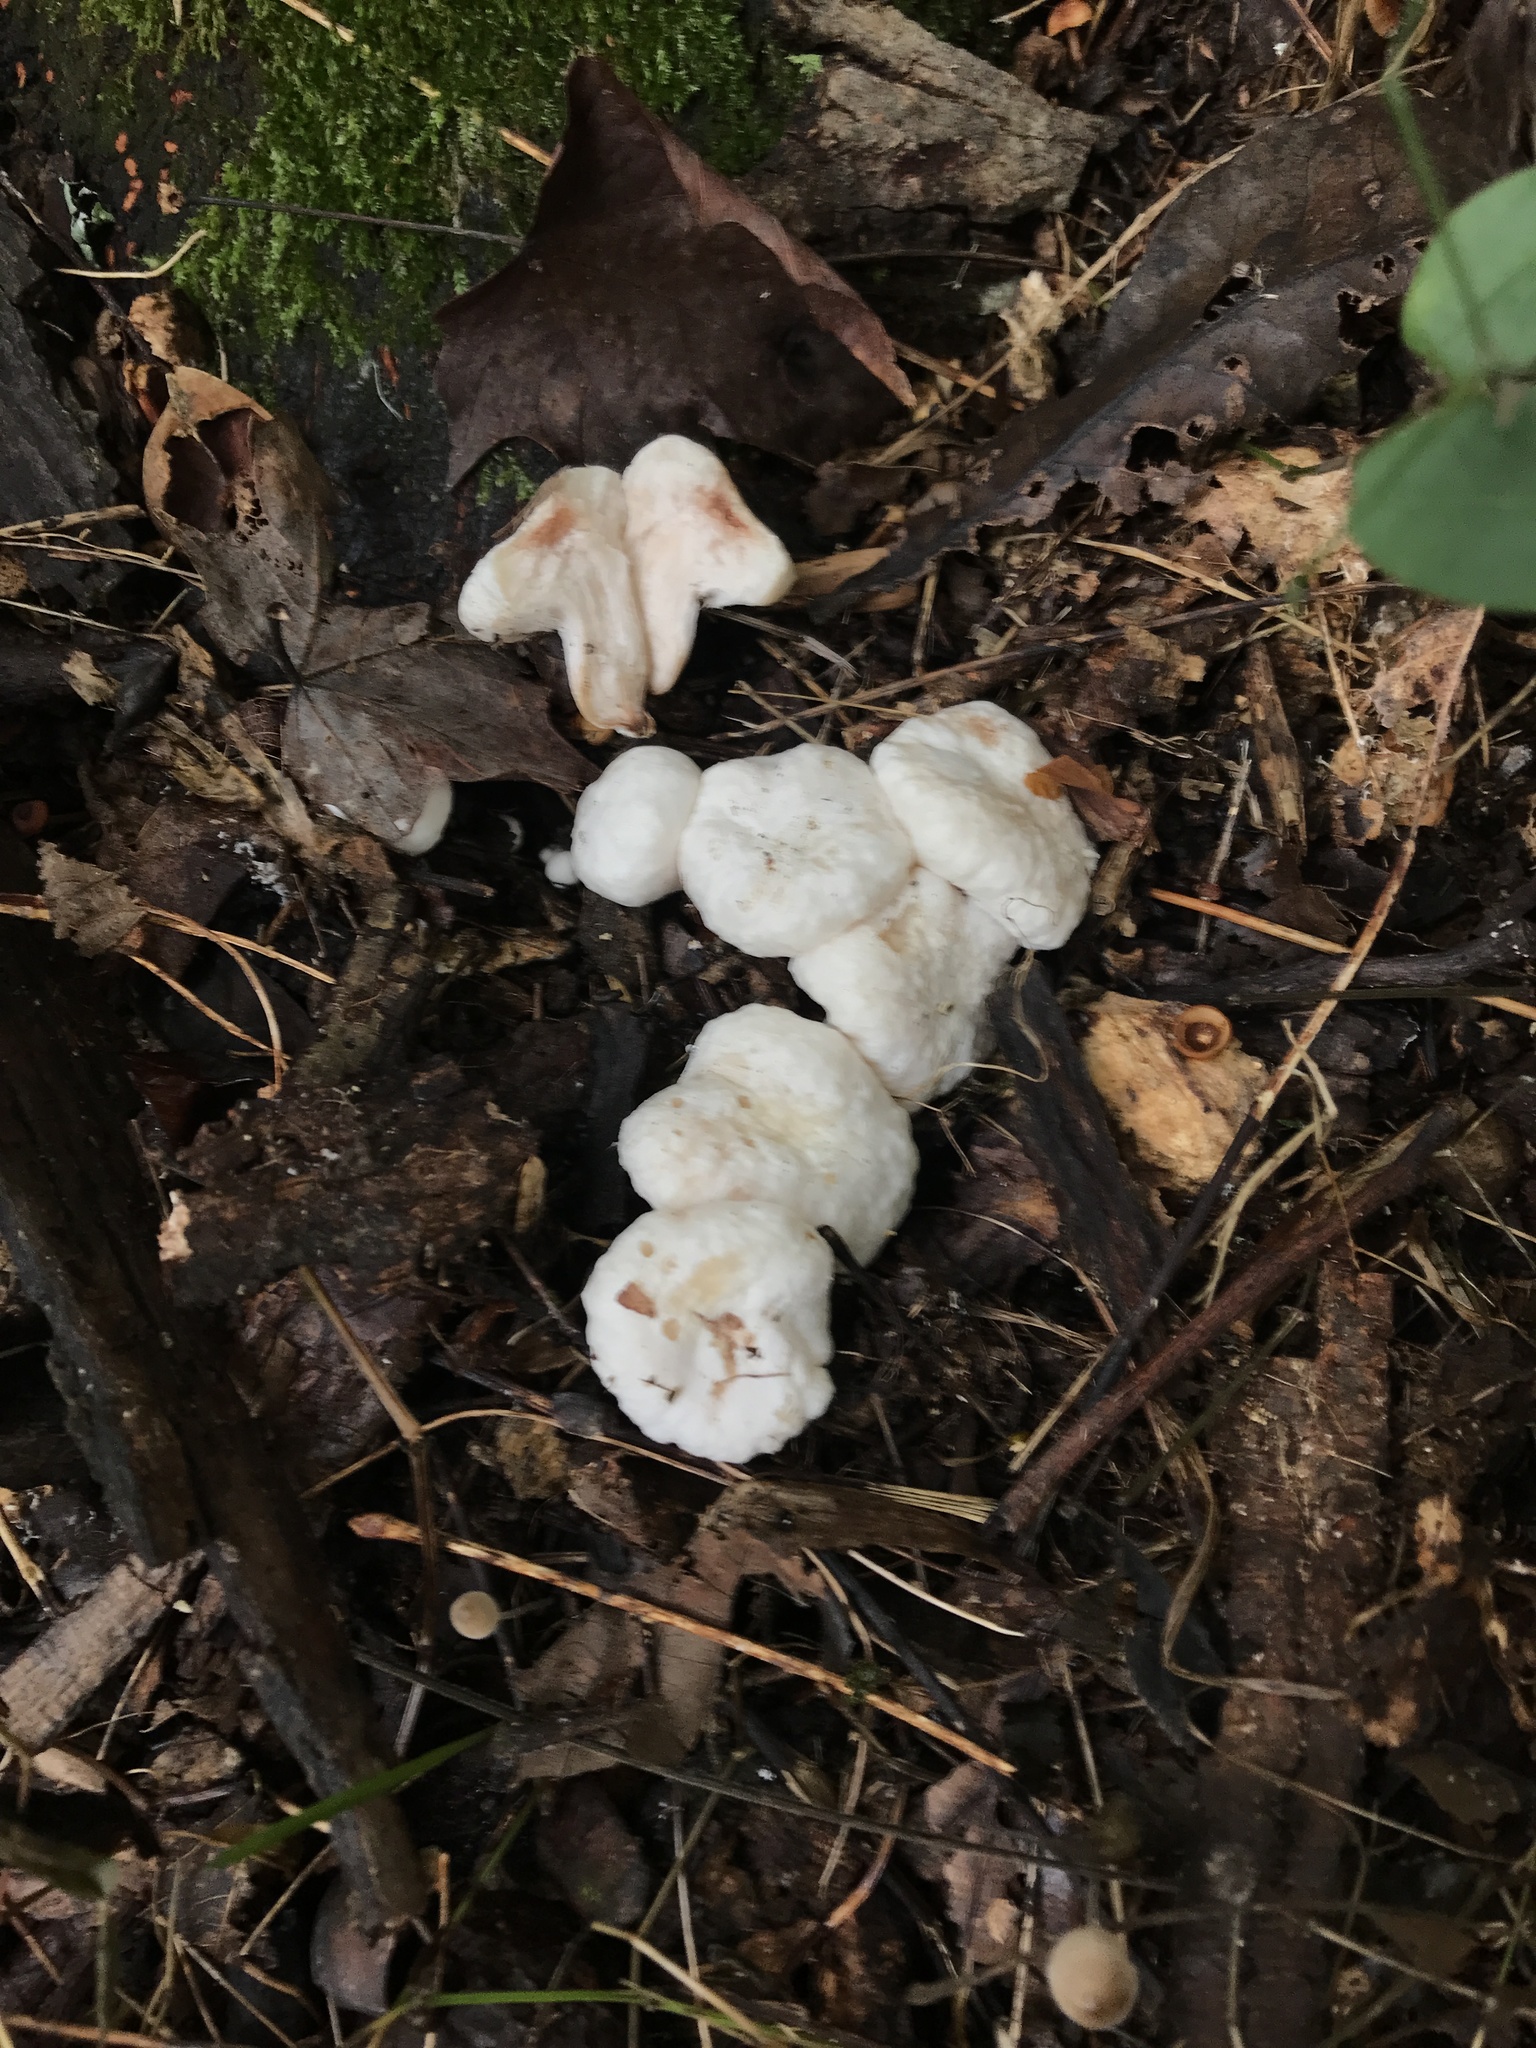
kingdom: Fungi
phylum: Basidiomycota
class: Agaricomycetes
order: Agaricales
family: Entolomataceae
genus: Entoloma
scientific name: Entoloma abortivum
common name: Aborted entoloma
